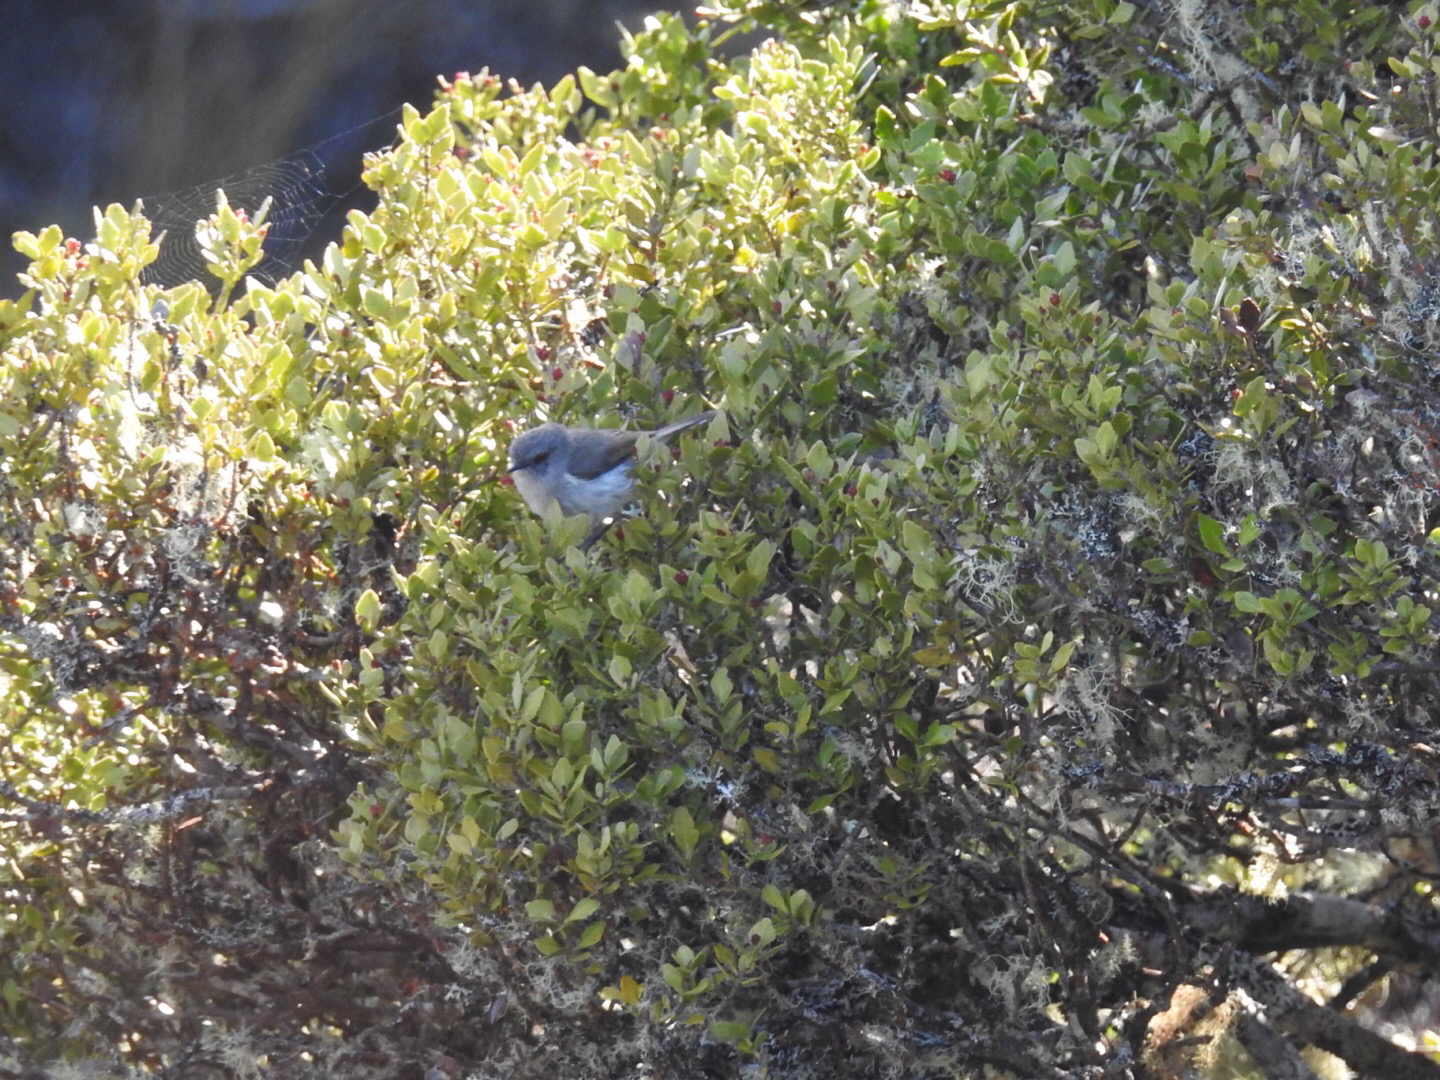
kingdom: Animalia
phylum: Chordata
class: Aves
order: Passeriformes
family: Acanthizidae
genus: Gerygone
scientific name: Gerygone igata
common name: Grey gerygone
